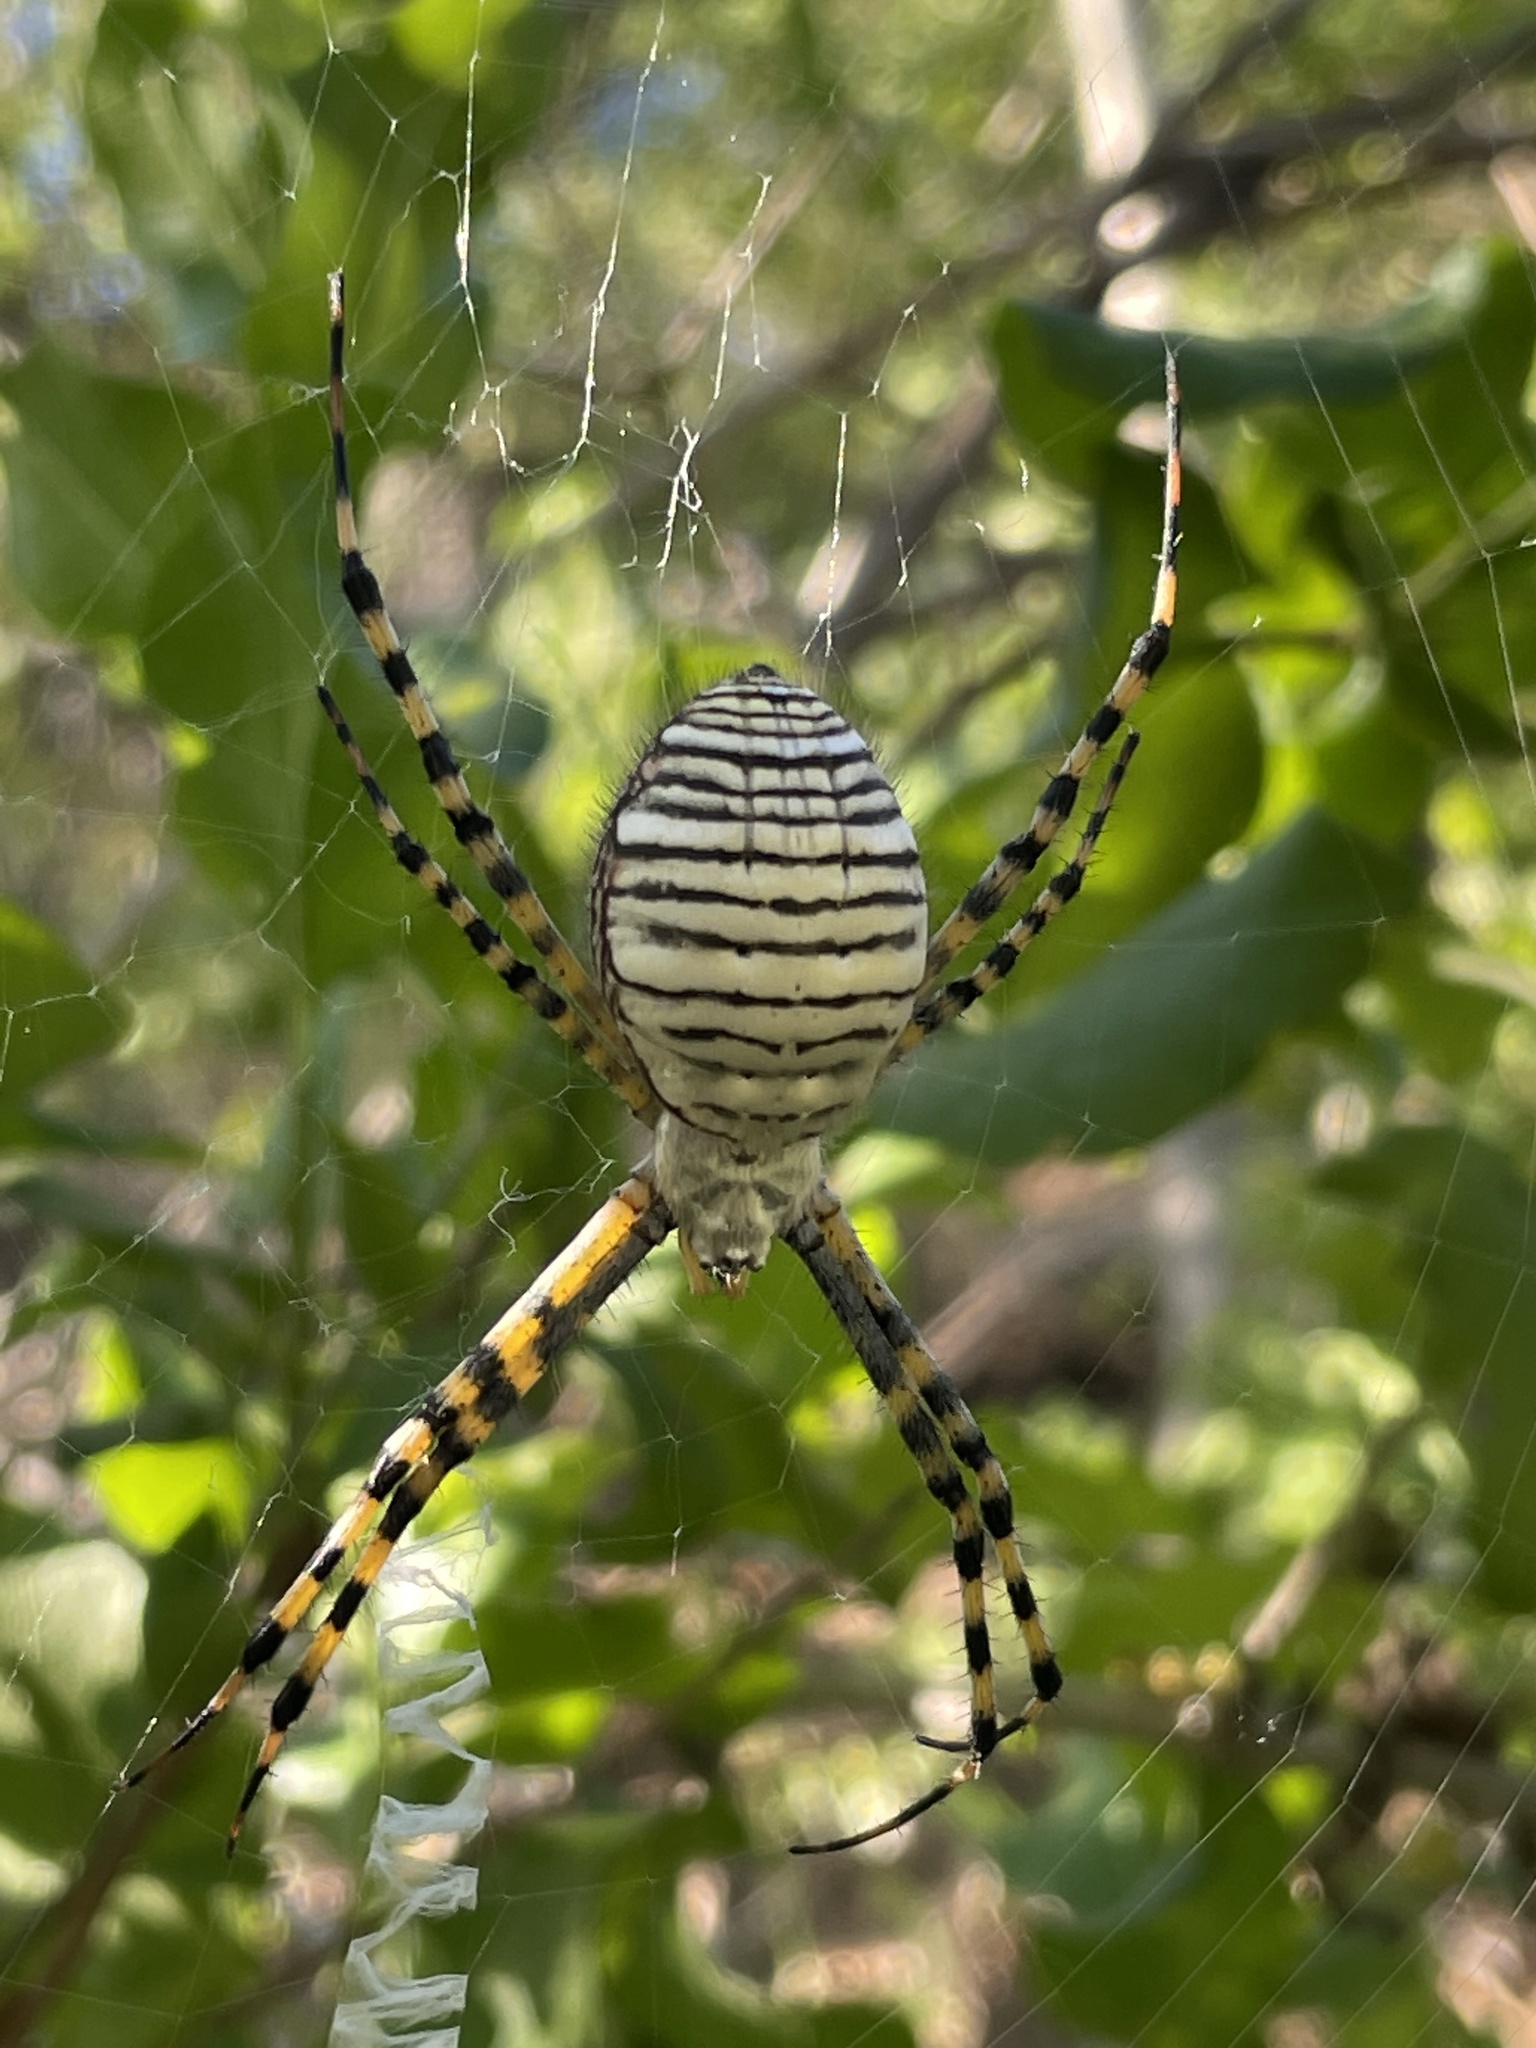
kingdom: Animalia
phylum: Arthropoda
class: Arachnida
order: Araneae
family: Araneidae
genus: Argiope
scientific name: Argiope trifasciata
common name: Banded garden spider
